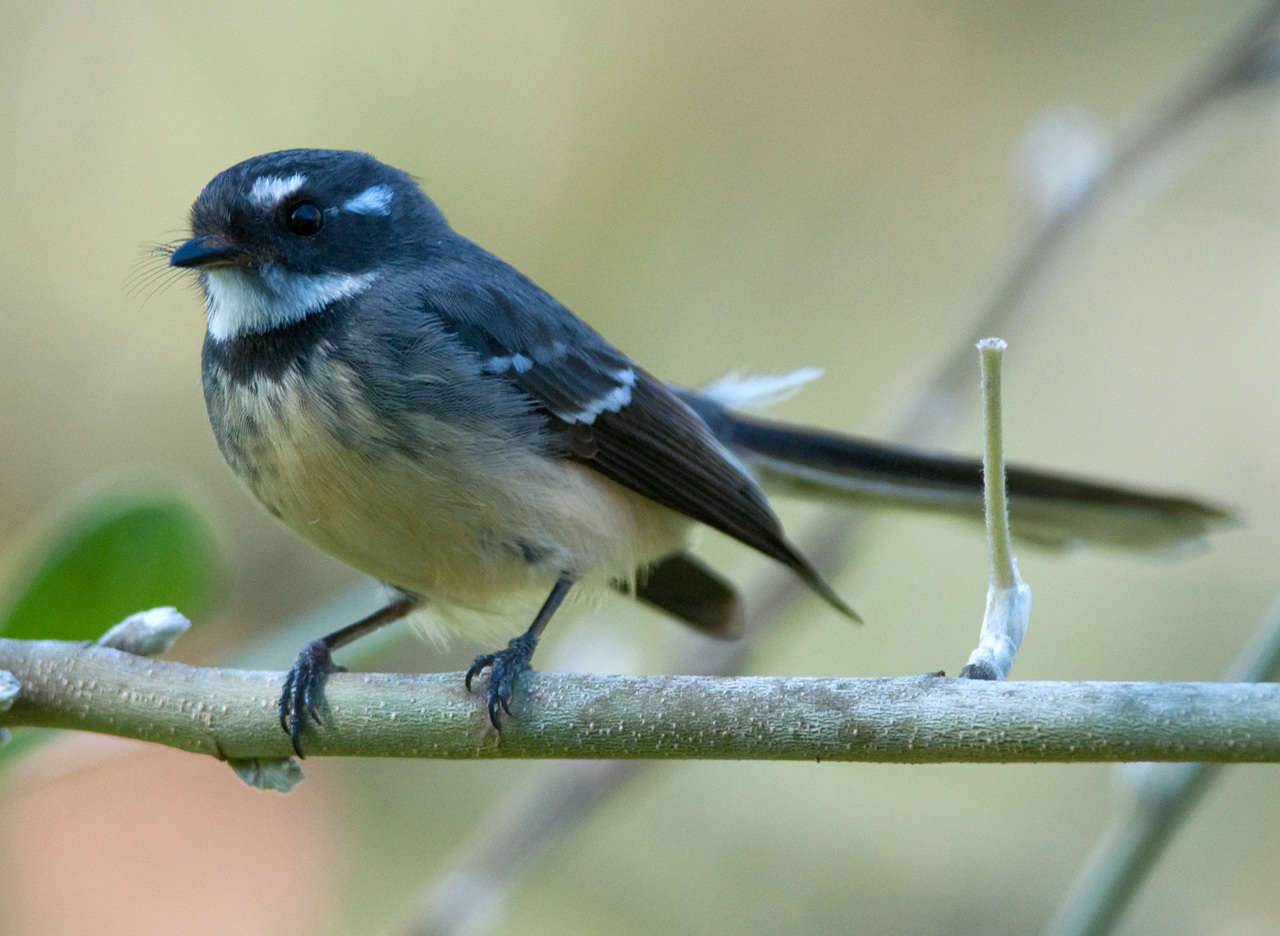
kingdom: Animalia
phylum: Chordata
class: Aves
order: Passeriformes
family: Rhipiduridae
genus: Rhipidura
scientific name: Rhipidura albiscapa
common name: Grey fantail
